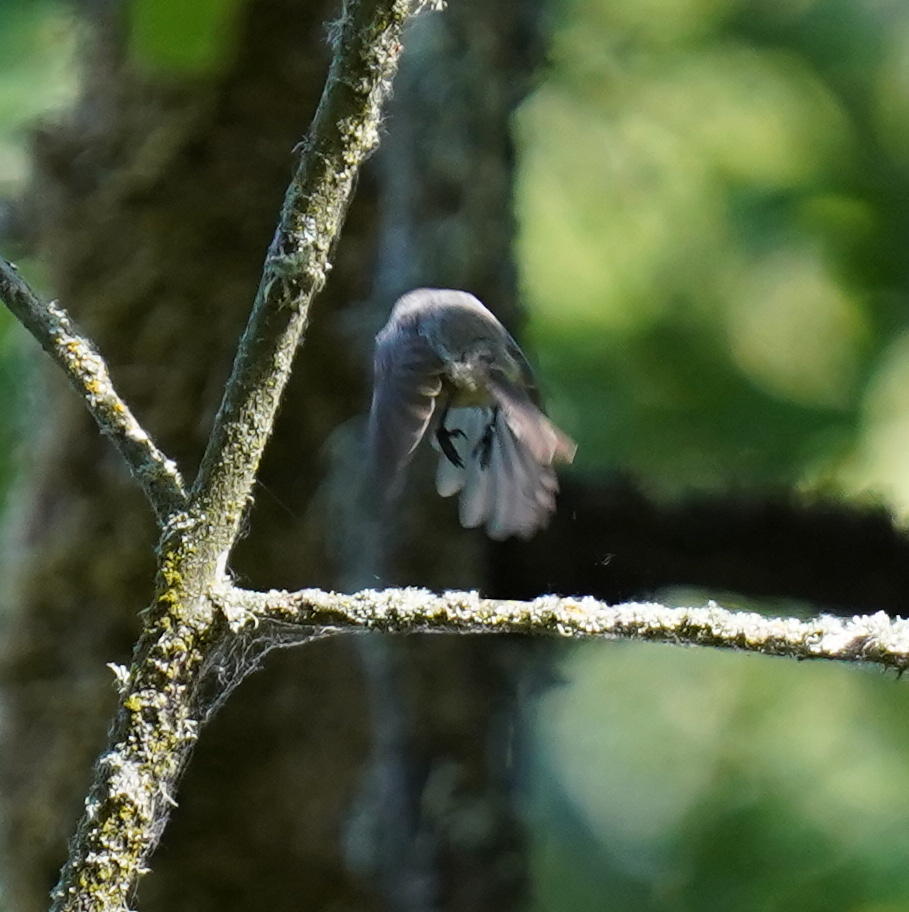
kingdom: Animalia
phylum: Chordata
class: Aves
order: Passeriformes
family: Aegithalidae
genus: Psaltriparus
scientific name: Psaltriparus minimus
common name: American bushtit
